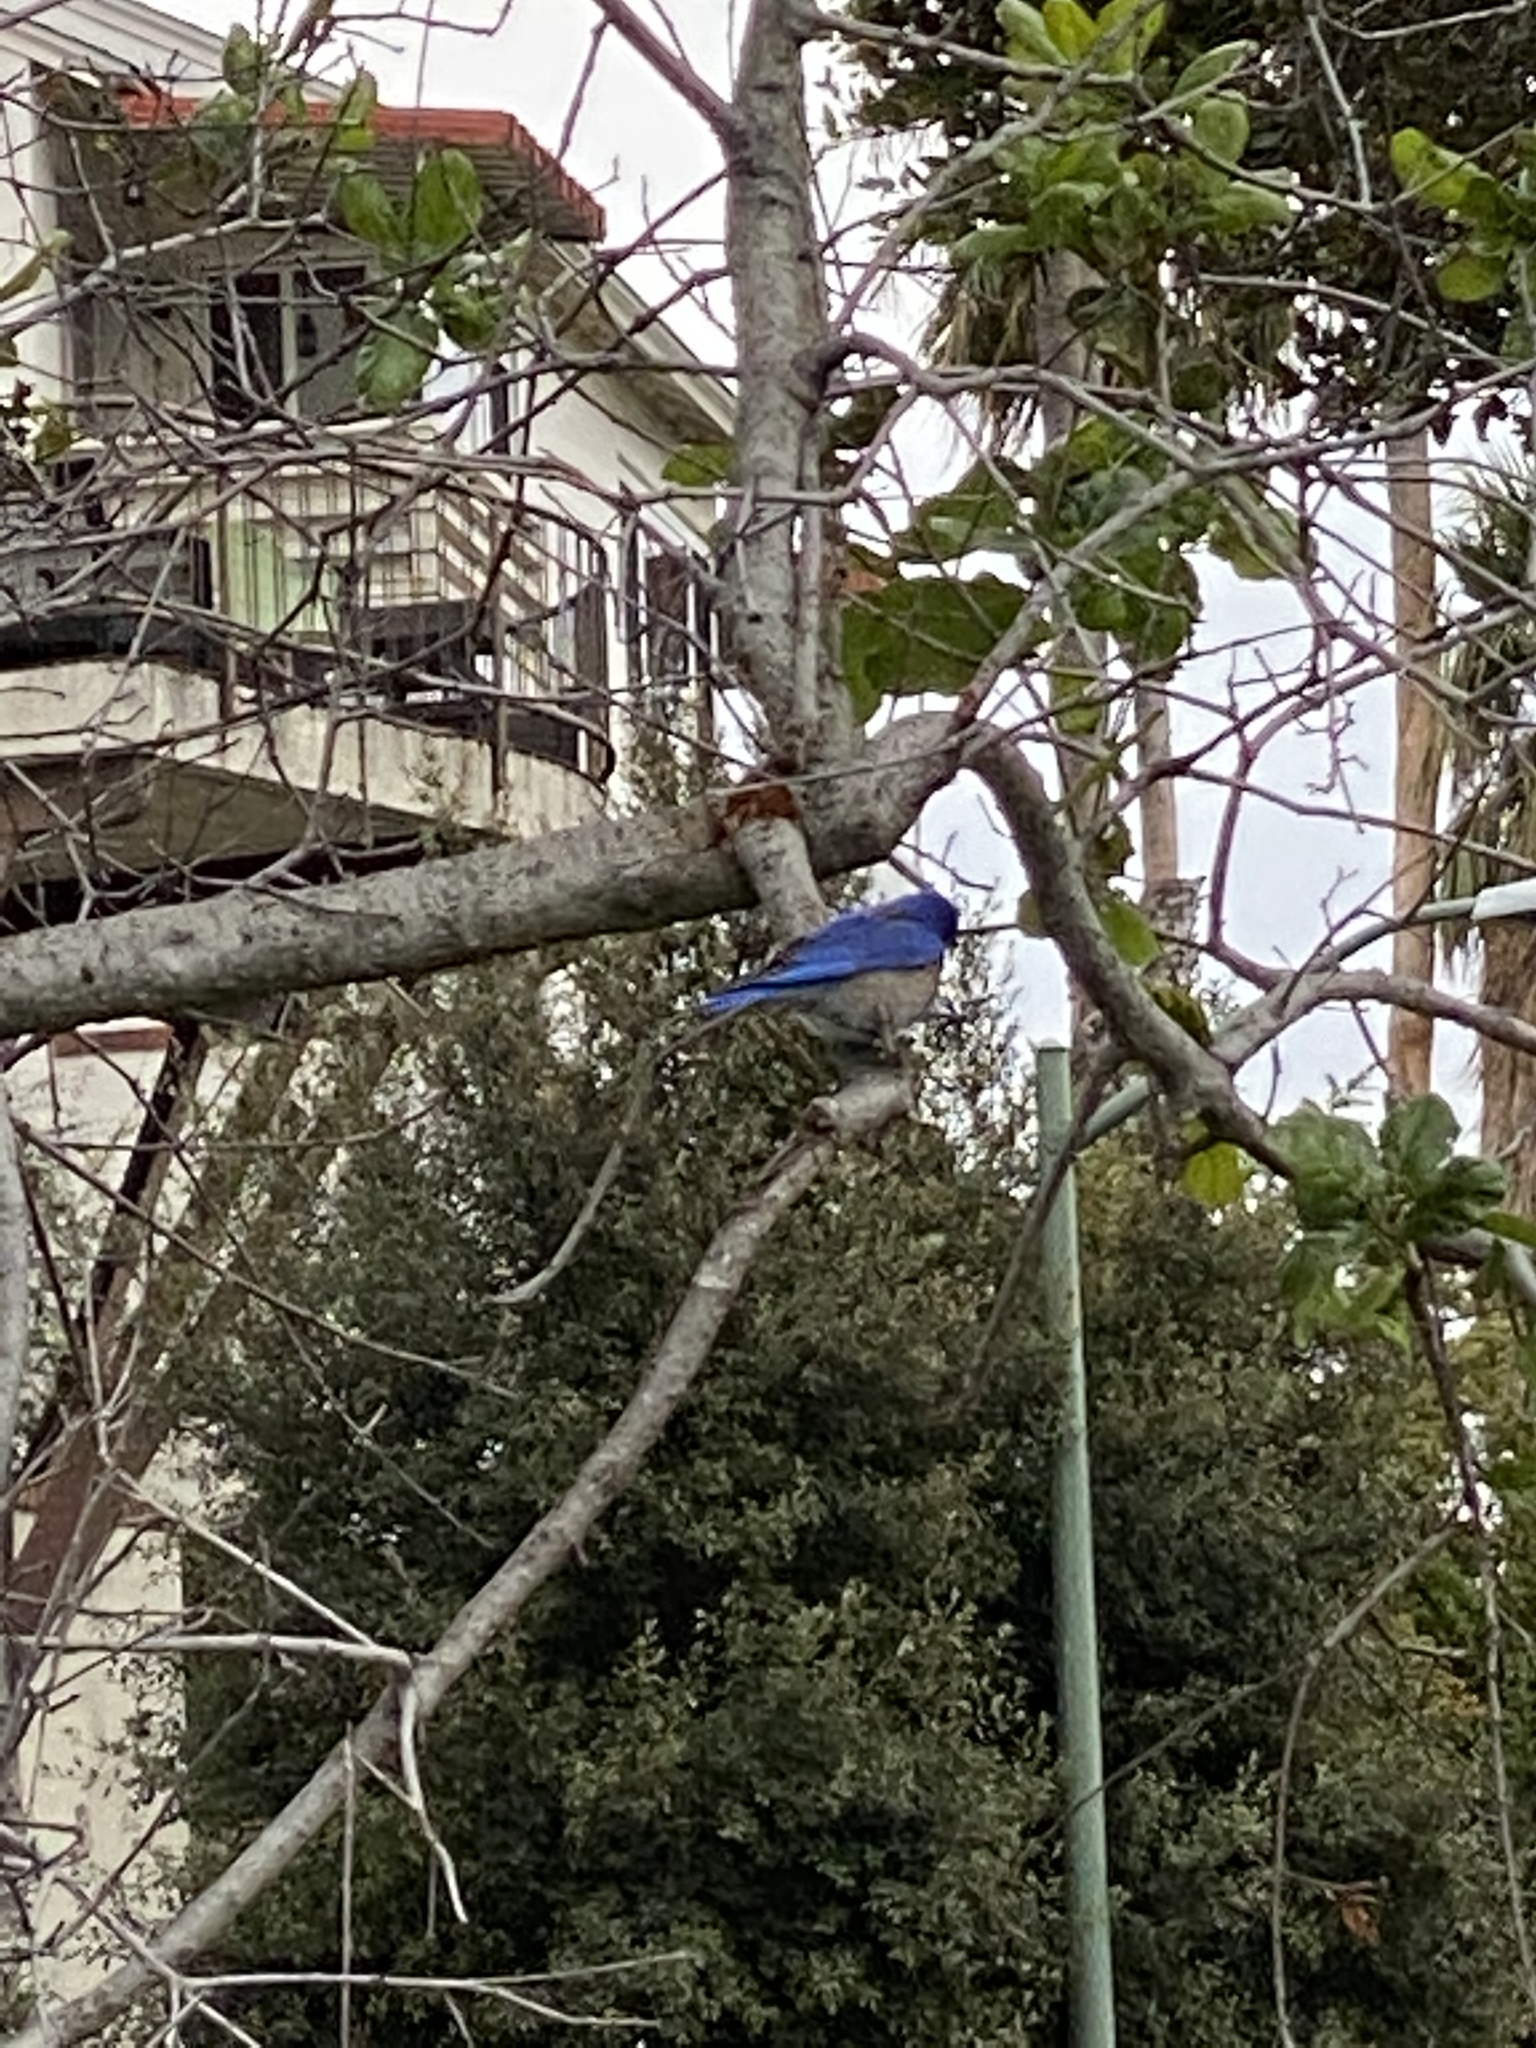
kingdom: Animalia
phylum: Chordata
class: Aves
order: Passeriformes
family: Turdidae
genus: Sialia
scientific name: Sialia mexicana
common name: Western bluebird
